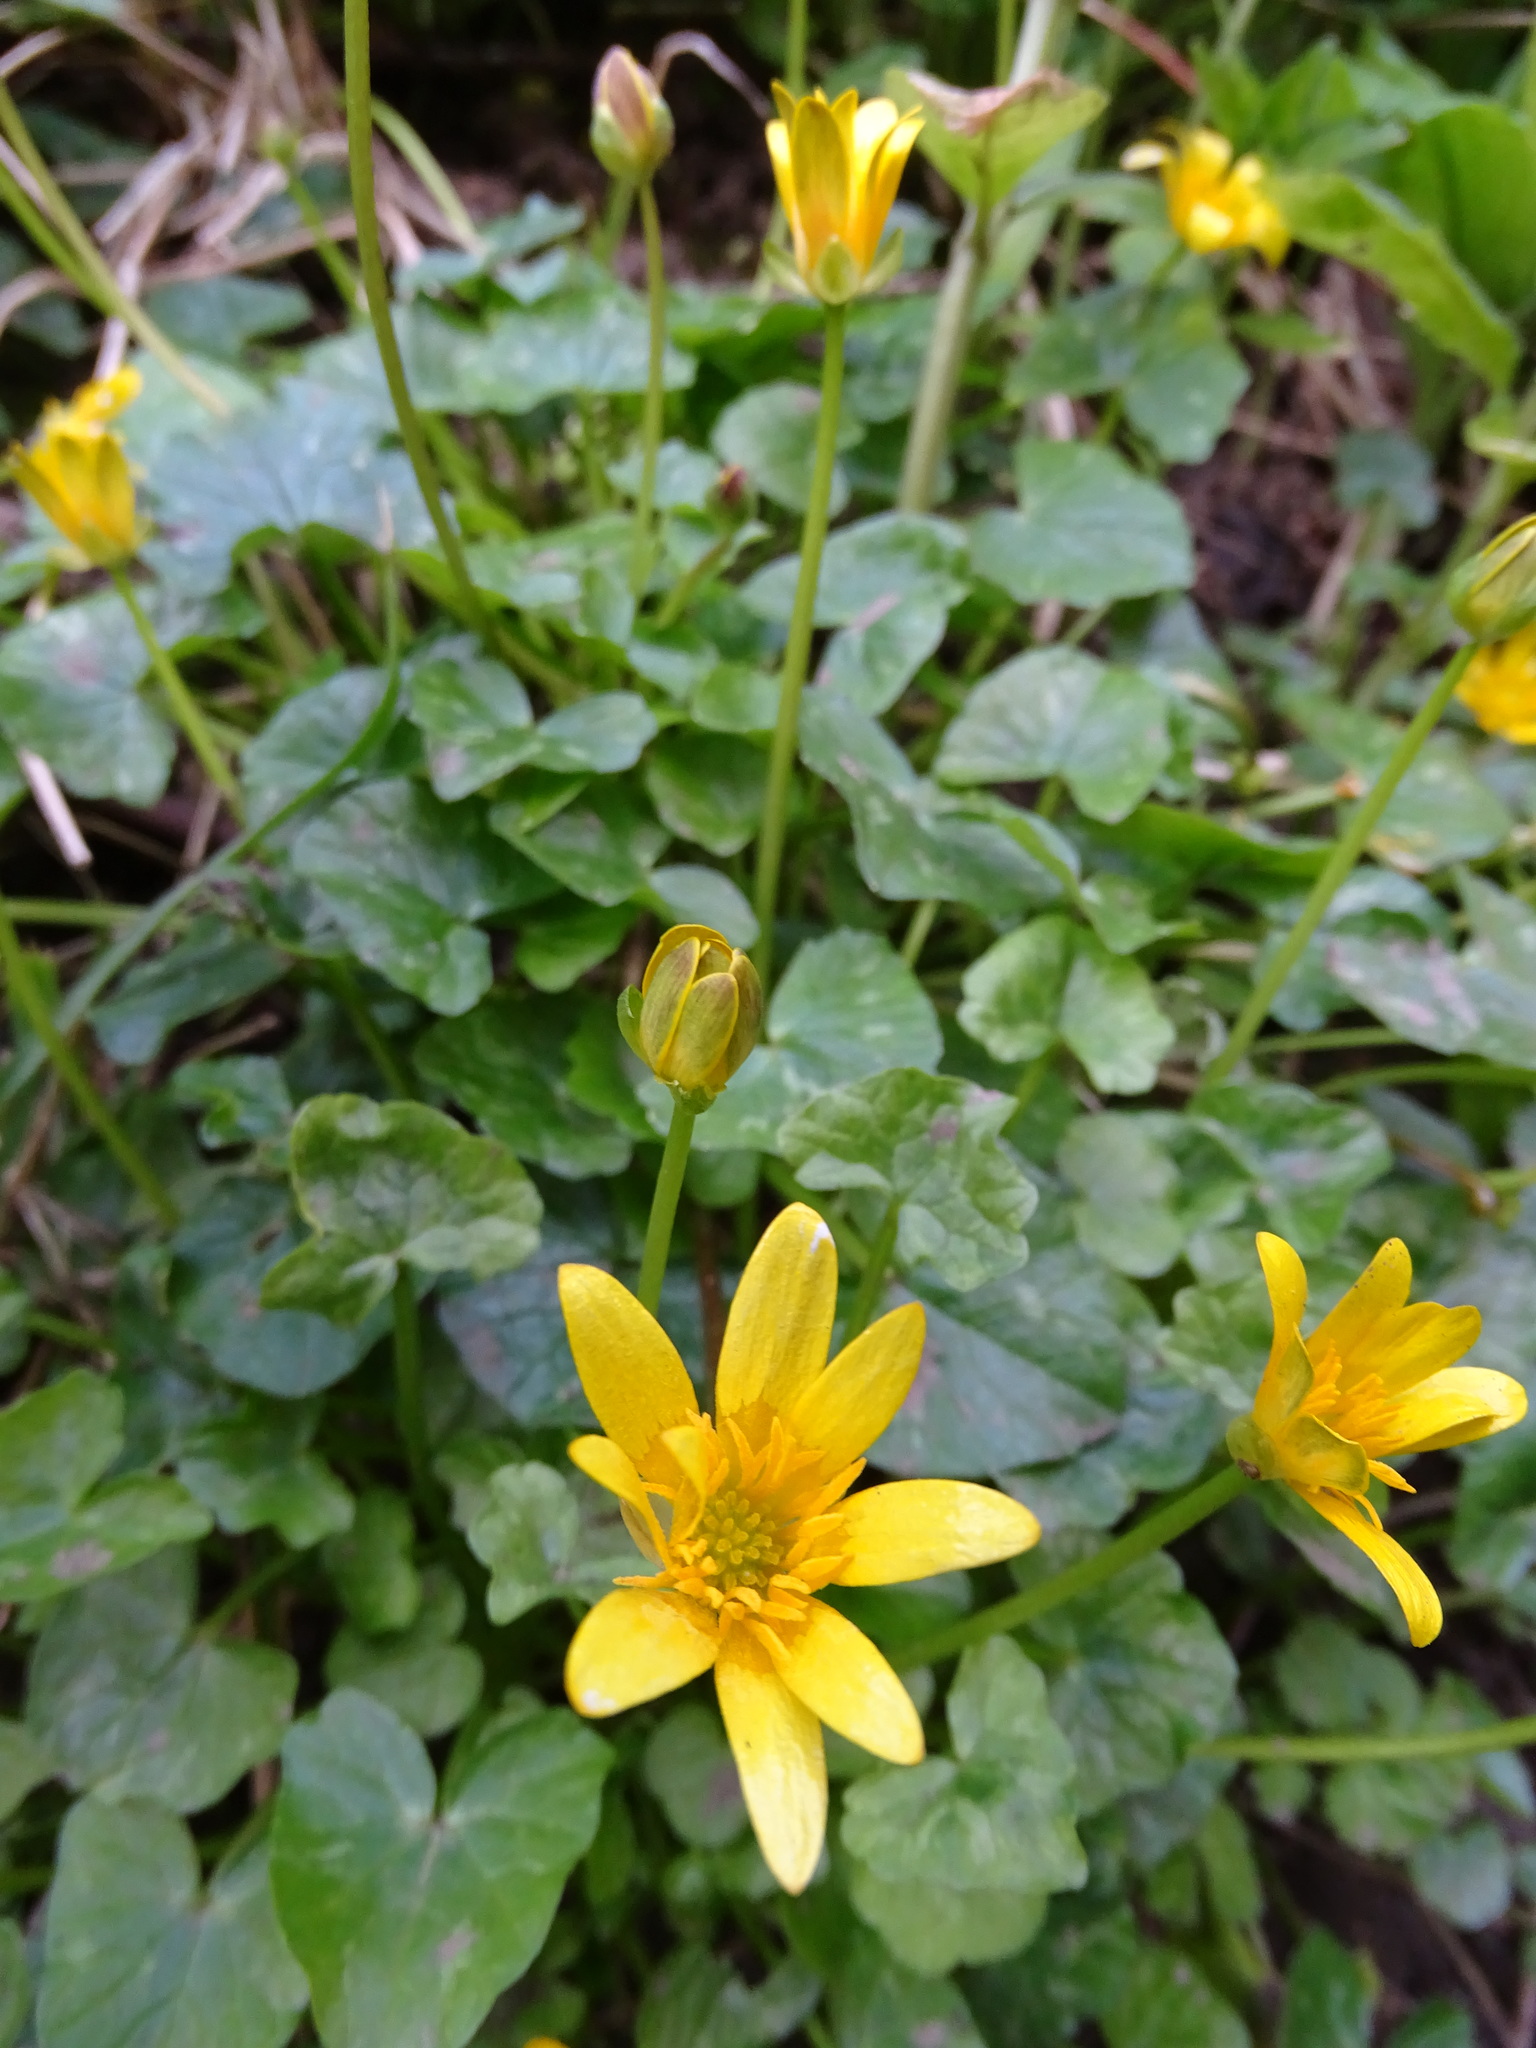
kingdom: Plantae
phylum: Tracheophyta
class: Magnoliopsida
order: Ranunculales
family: Ranunculaceae
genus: Ficaria
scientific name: Ficaria verna
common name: Lesser celandine
